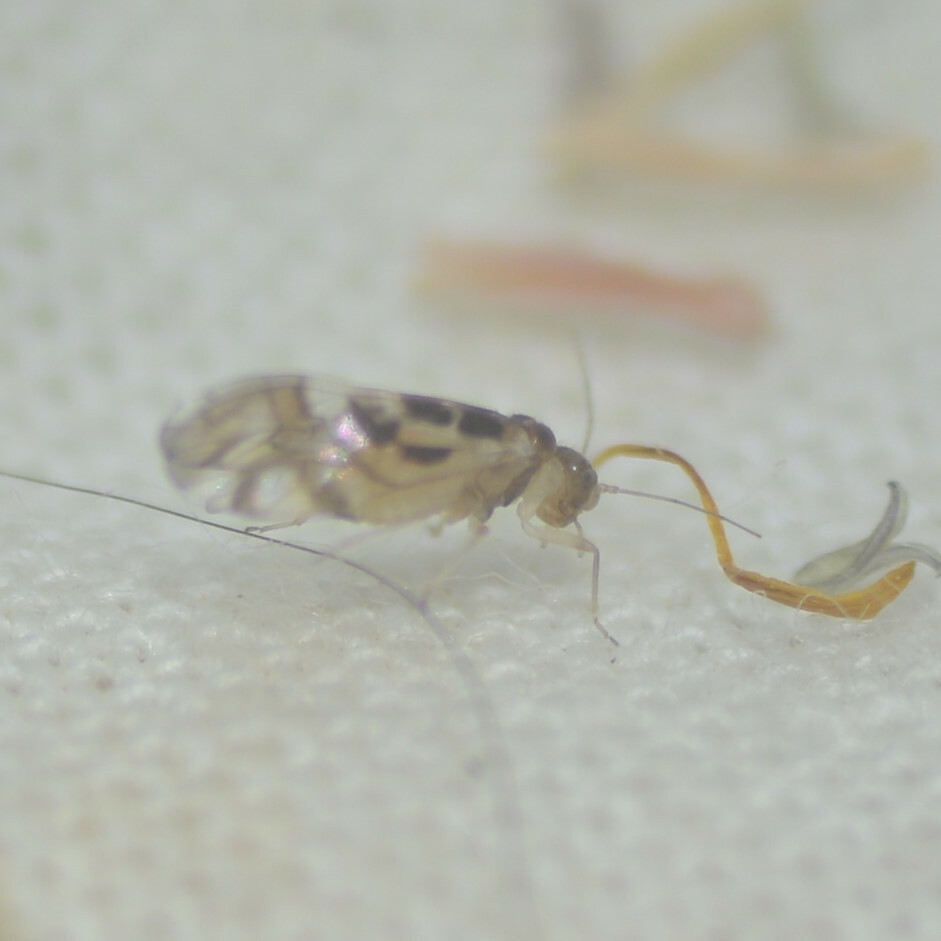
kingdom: Animalia
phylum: Arthropoda
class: Insecta
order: Psocodea
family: Stenopsocidae
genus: Graphopsocus
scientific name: Graphopsocus cruciatus
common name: Lizard bark louse
